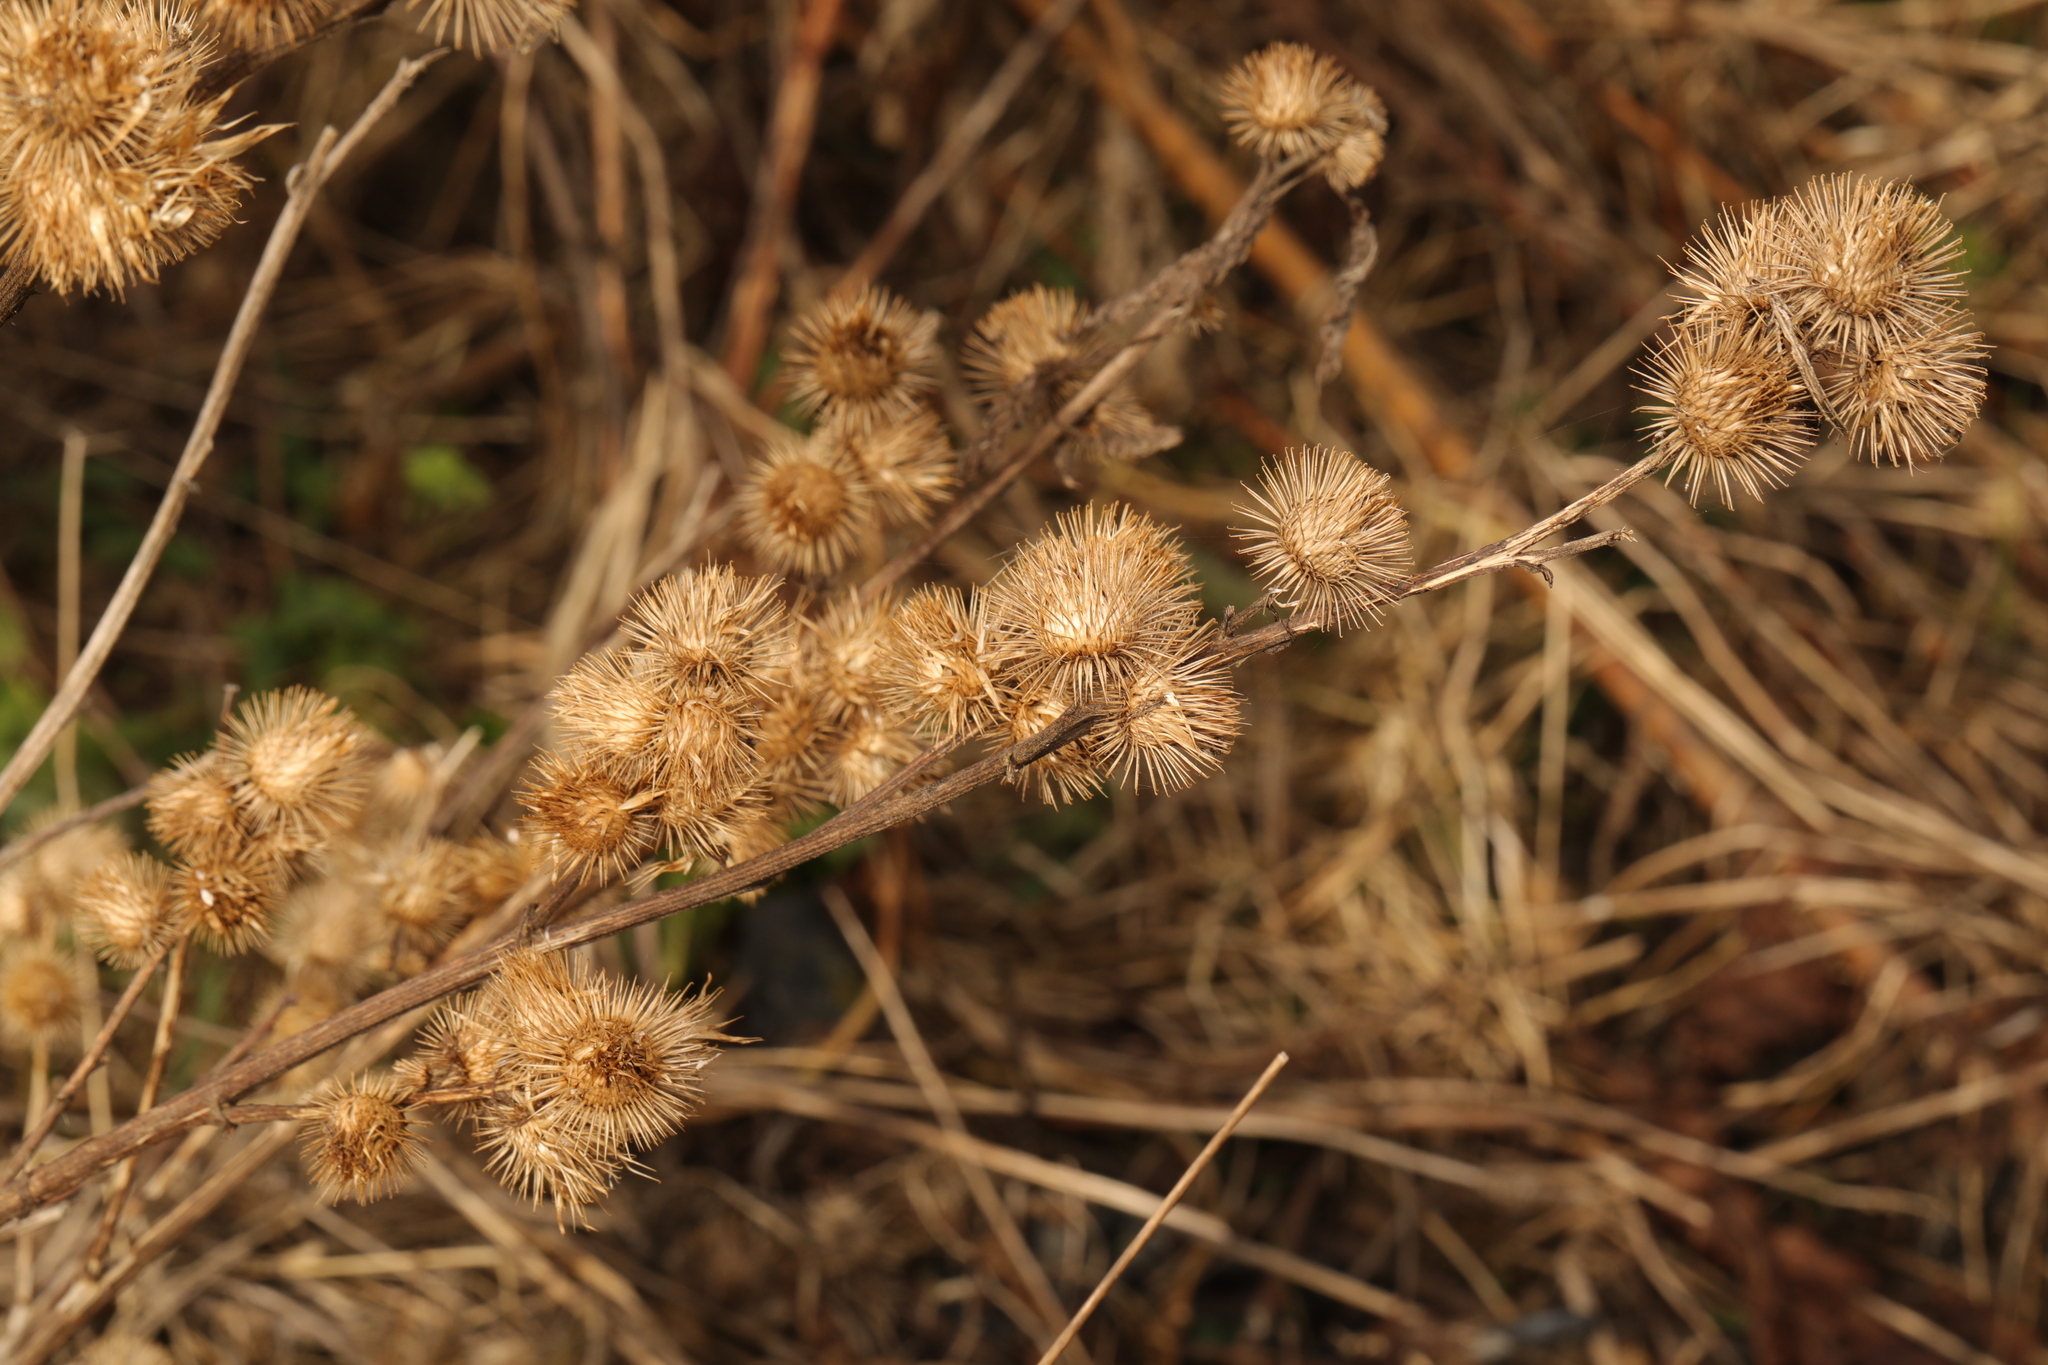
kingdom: Plantae
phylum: Tracheophyta
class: Magnoliopsida
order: Asterales
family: Asteraceae
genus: Arctium
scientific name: Arctium minus
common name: Lesser burdock
